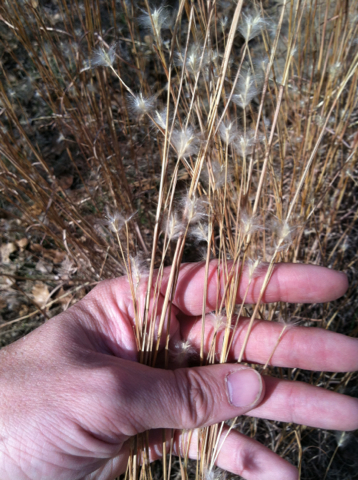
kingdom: Plantae
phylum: Tracheophyta
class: Liliopsida
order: Poales
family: Poaceae
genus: Andropogon
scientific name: Andropogon ternarius
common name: Split bluestem
